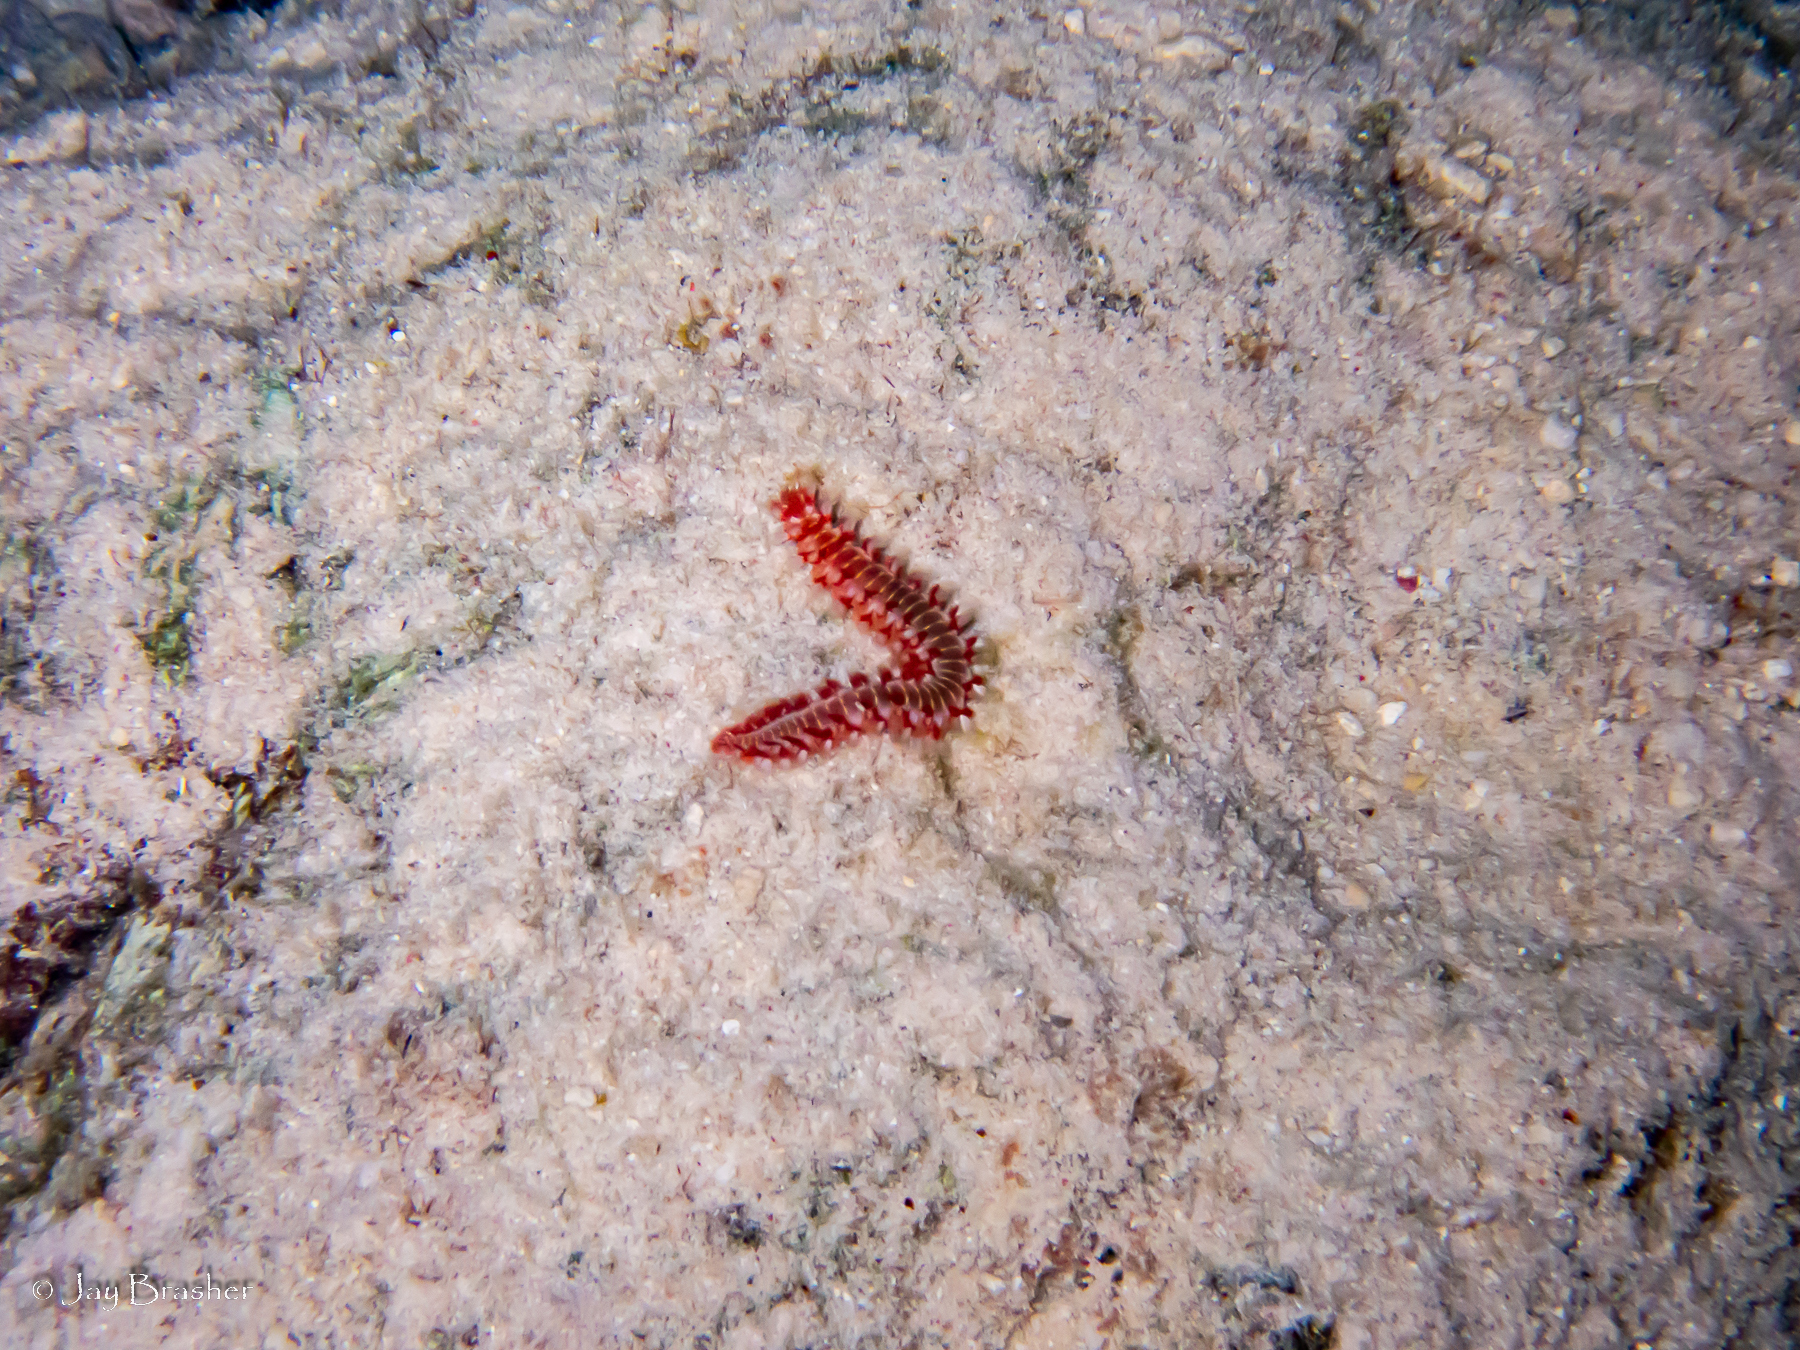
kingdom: Animalia
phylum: Annelida
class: Polychaeta
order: Amphinomida
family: Amphinomidae
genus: Hermodice
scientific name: Hermodice carunculata
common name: Bearded fireworm
